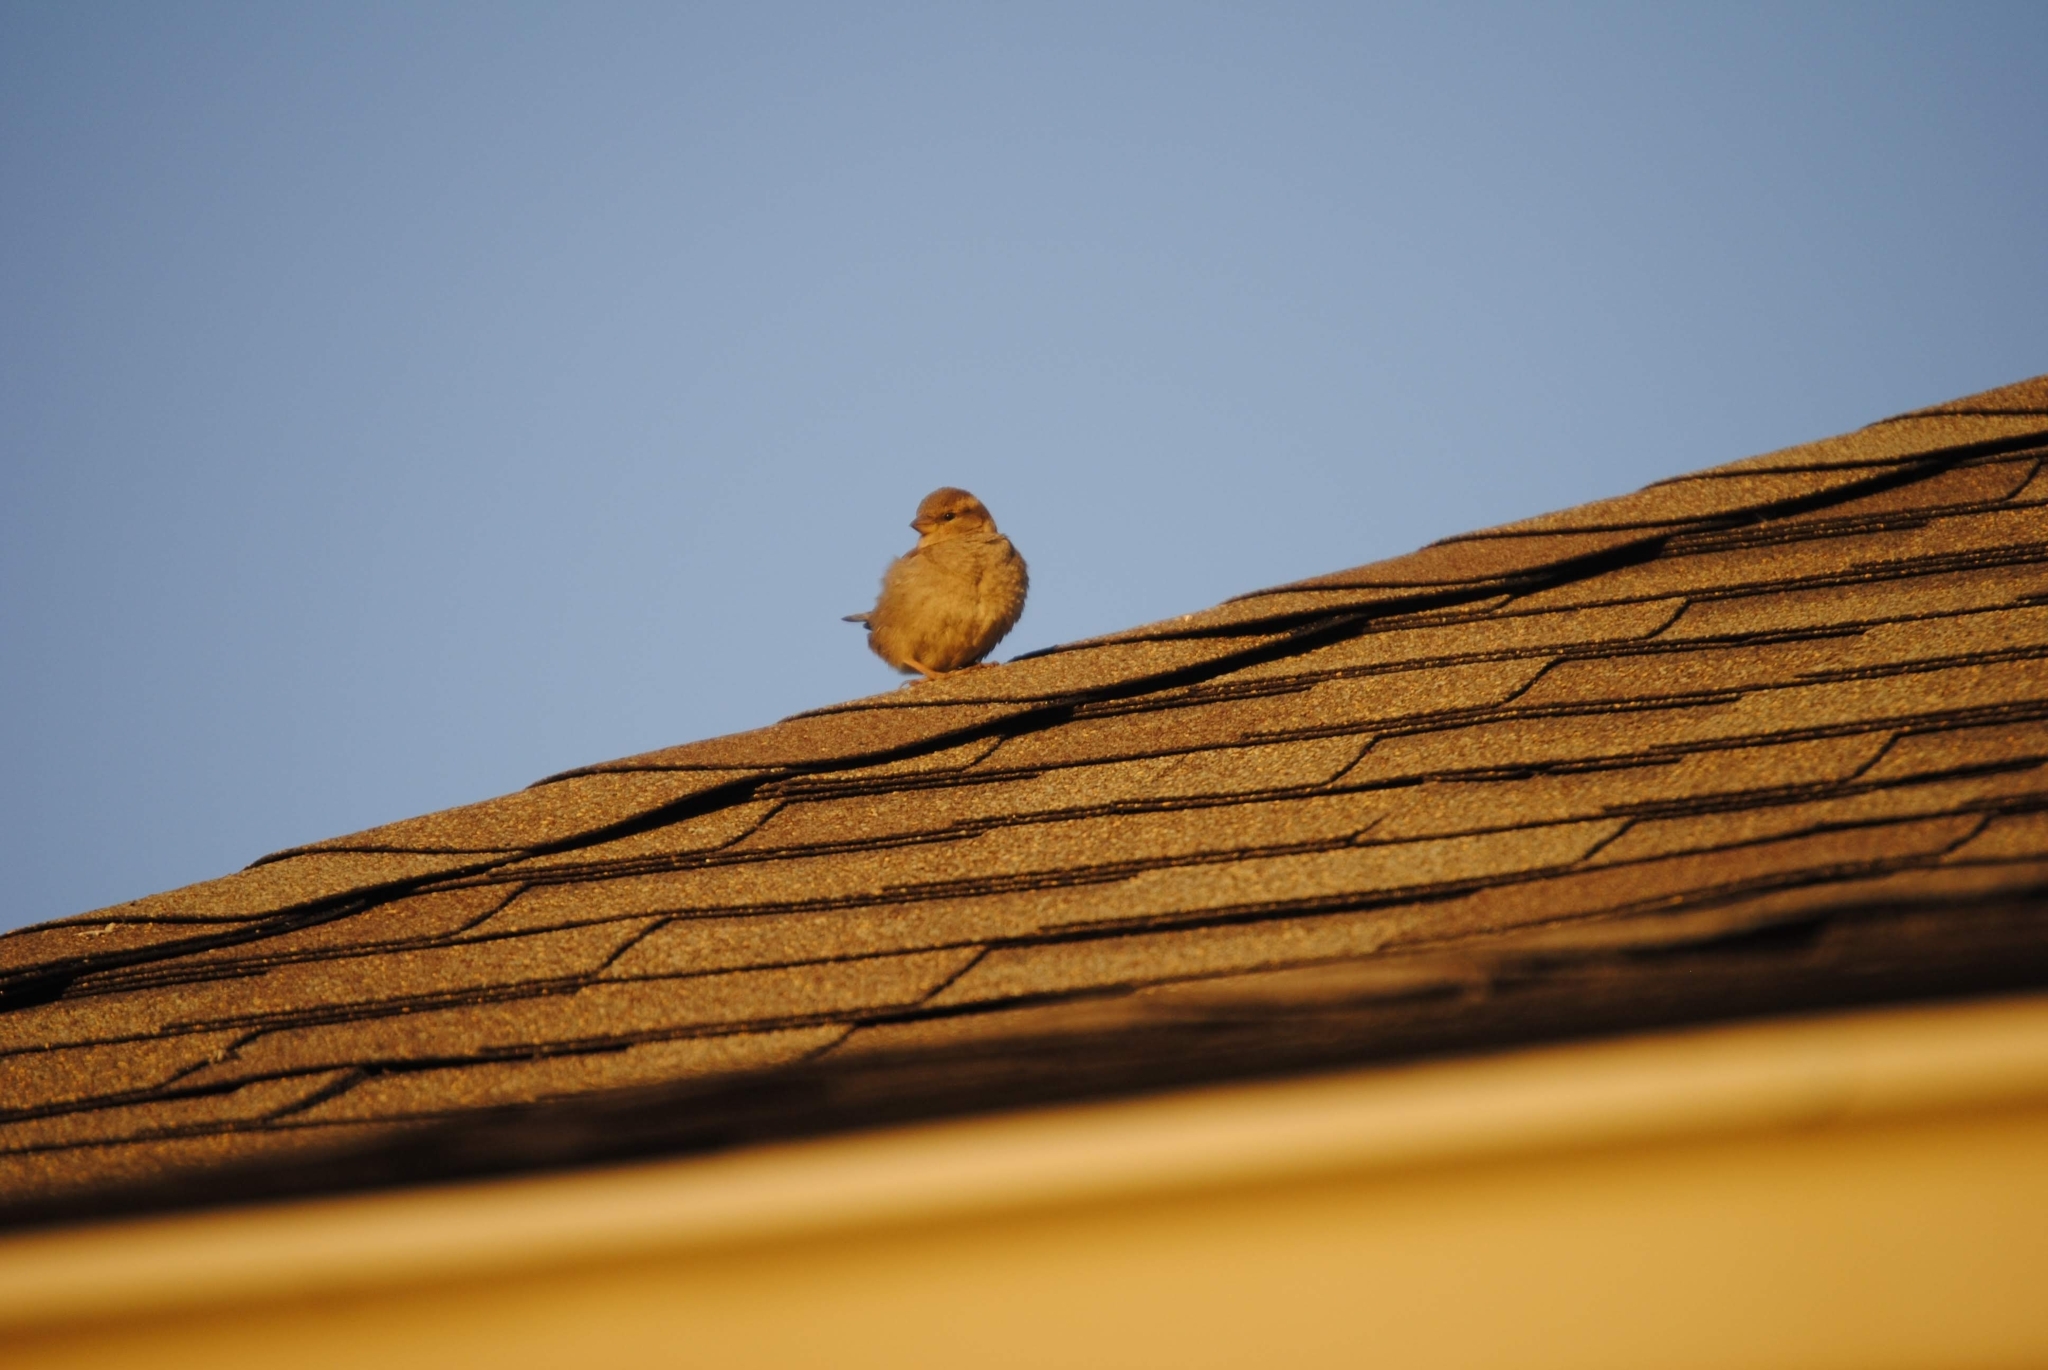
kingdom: Animalia
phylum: Chordata
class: Aves
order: Passeriformes
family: Passeridae
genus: Passer
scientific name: Passer domesticus
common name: House sparrow
